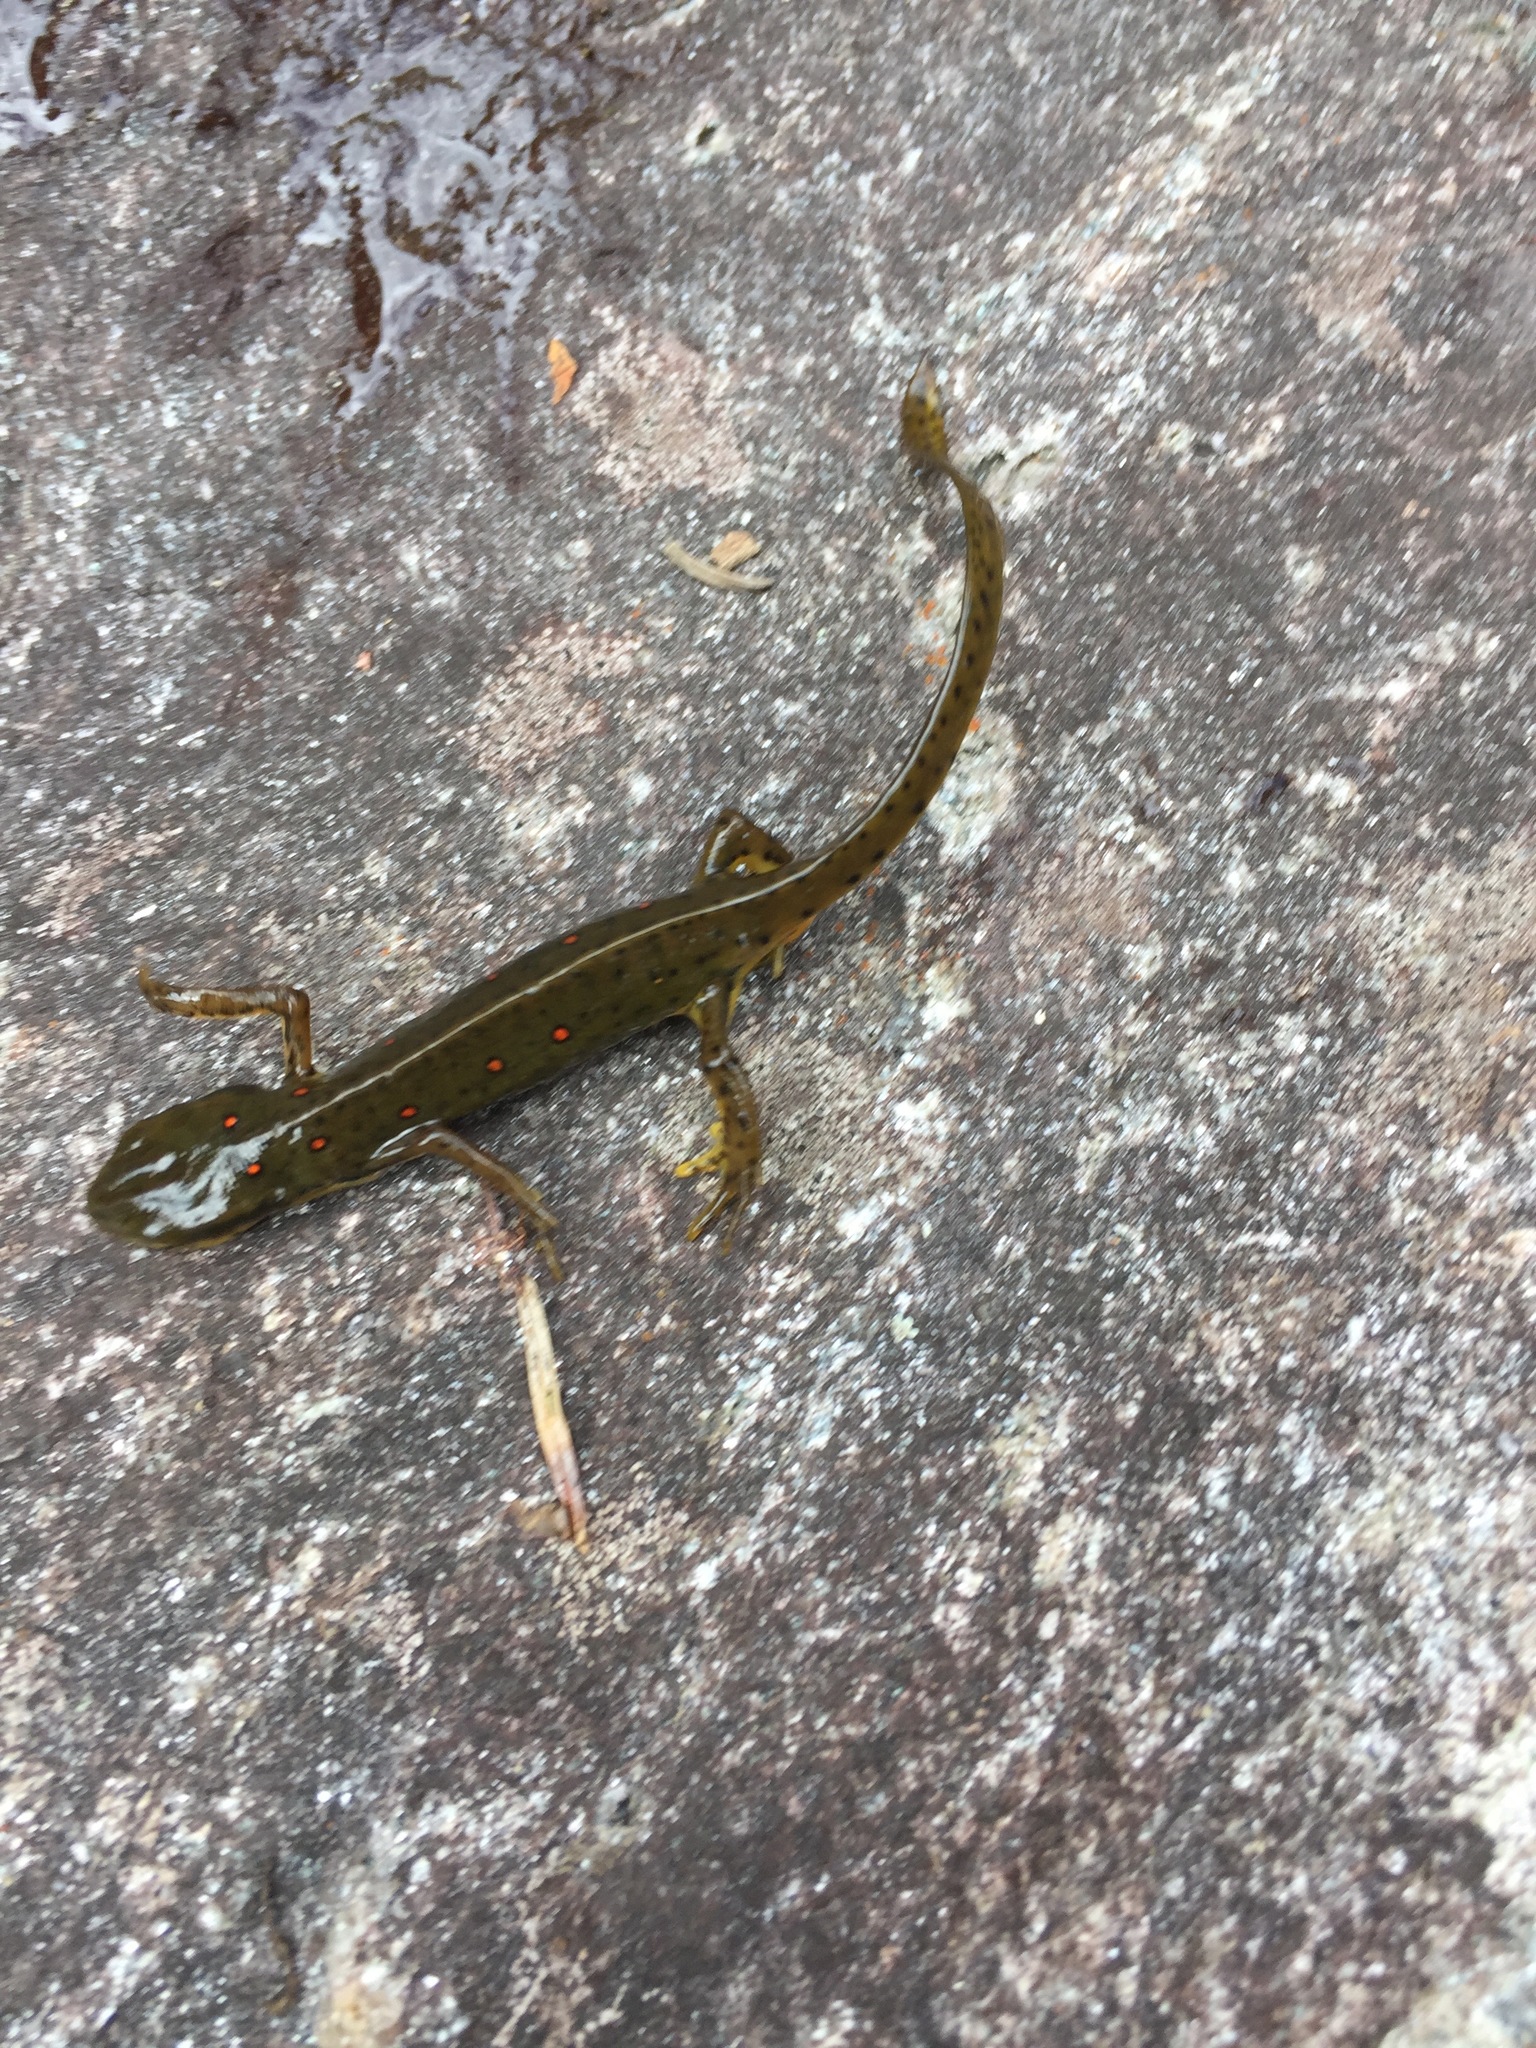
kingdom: Animalia
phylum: Chordata
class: Amphibia
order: Caudata
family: Salamandridae
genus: Notophthalmus
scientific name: Notophthalmus viridescens
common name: Eastern newt
